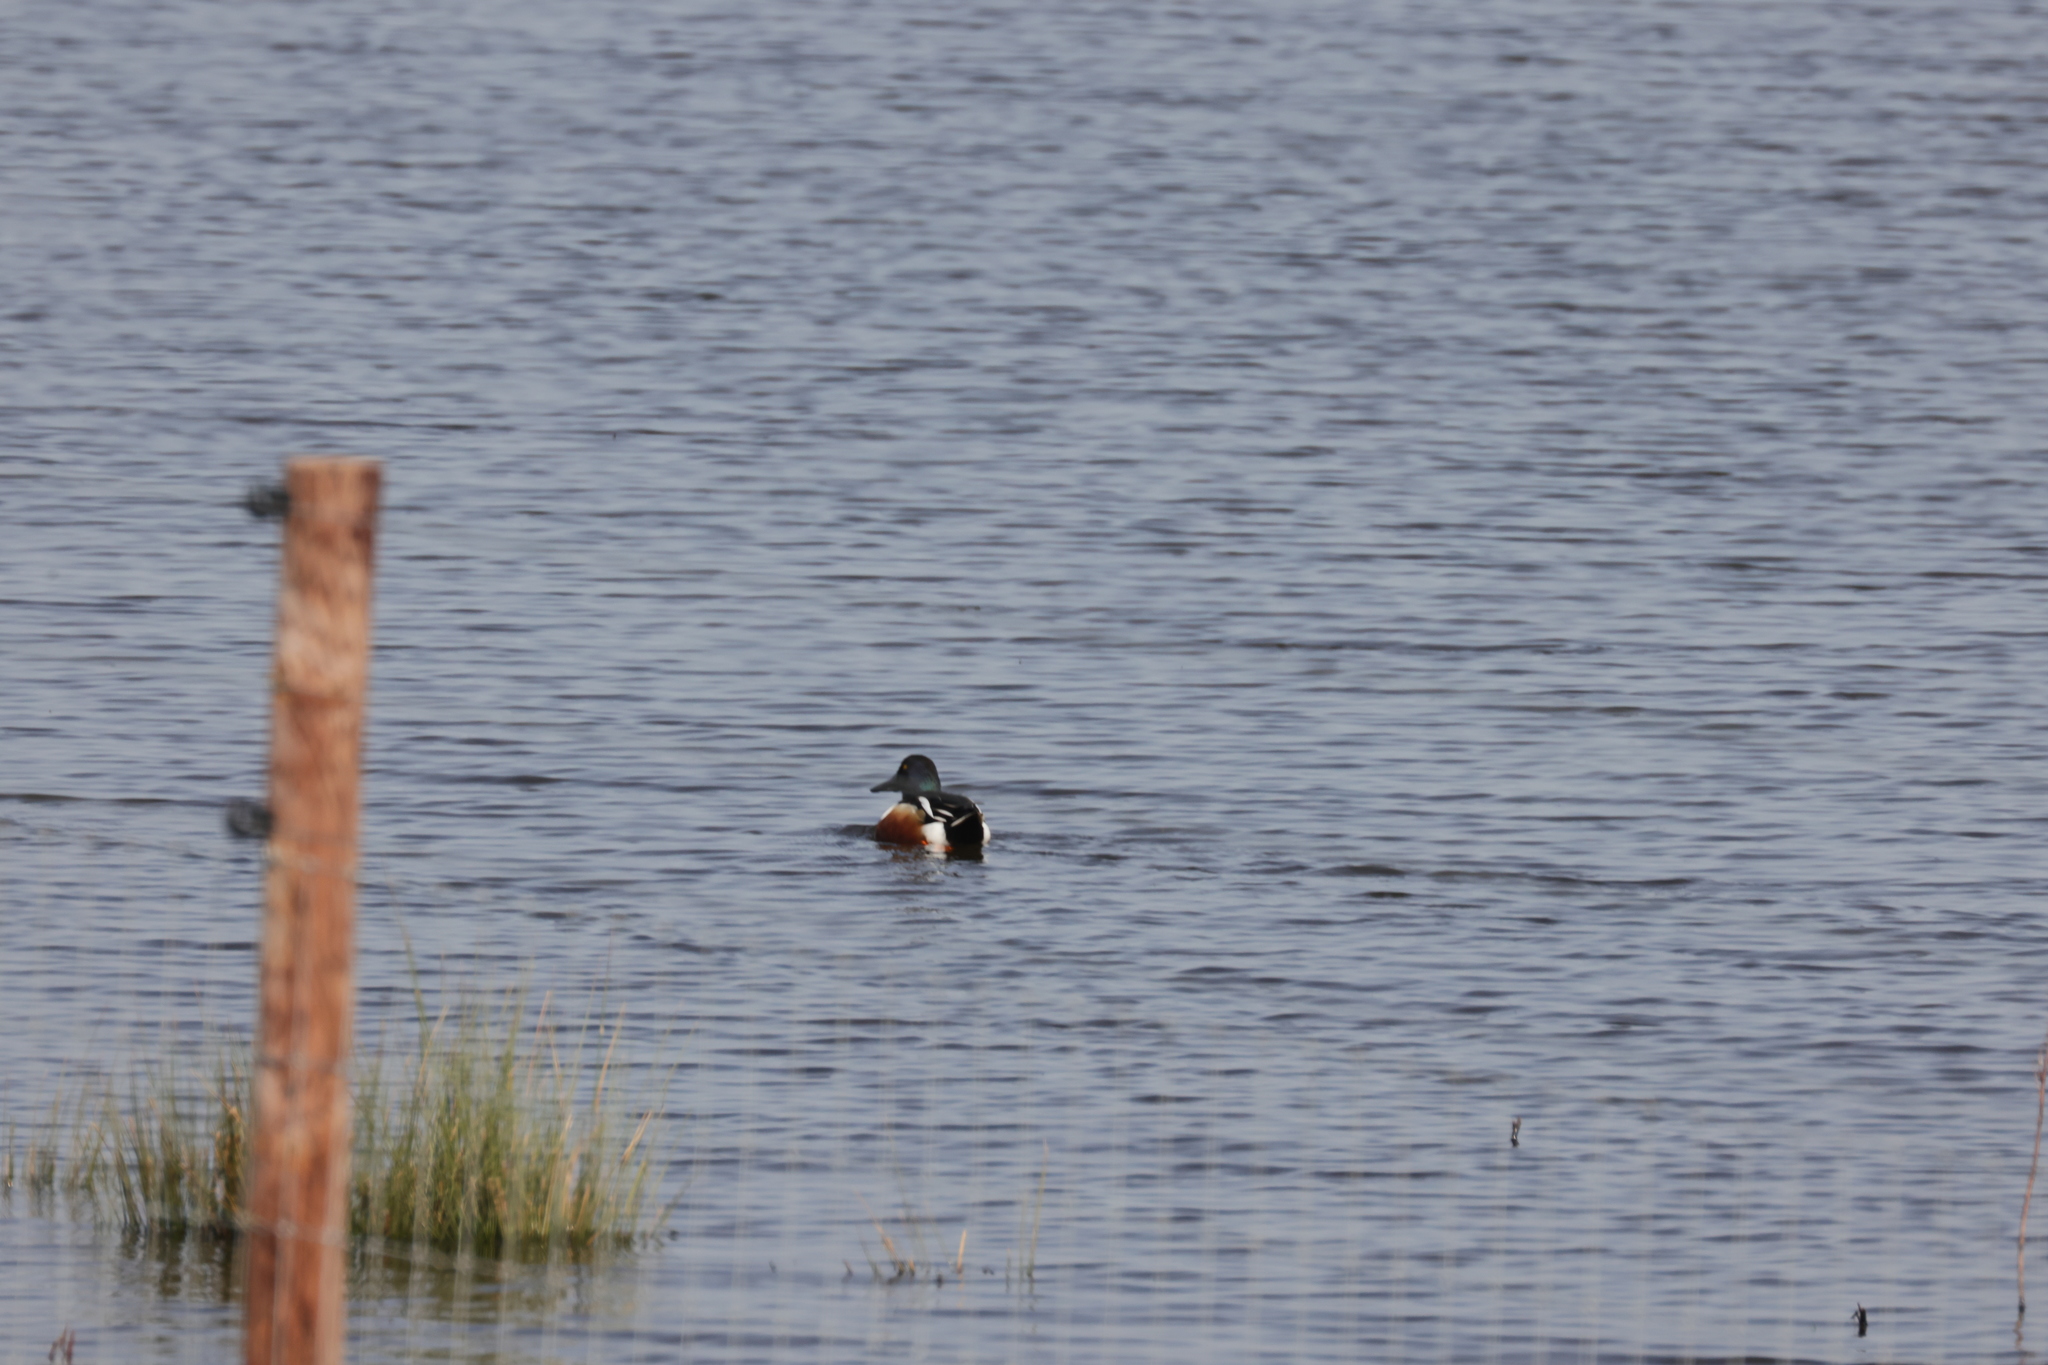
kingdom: Animalia
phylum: Chordata
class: Aves
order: Anseriformes
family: Anatidae
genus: Spatula
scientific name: Spatula clypeata
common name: Northern shoveler
